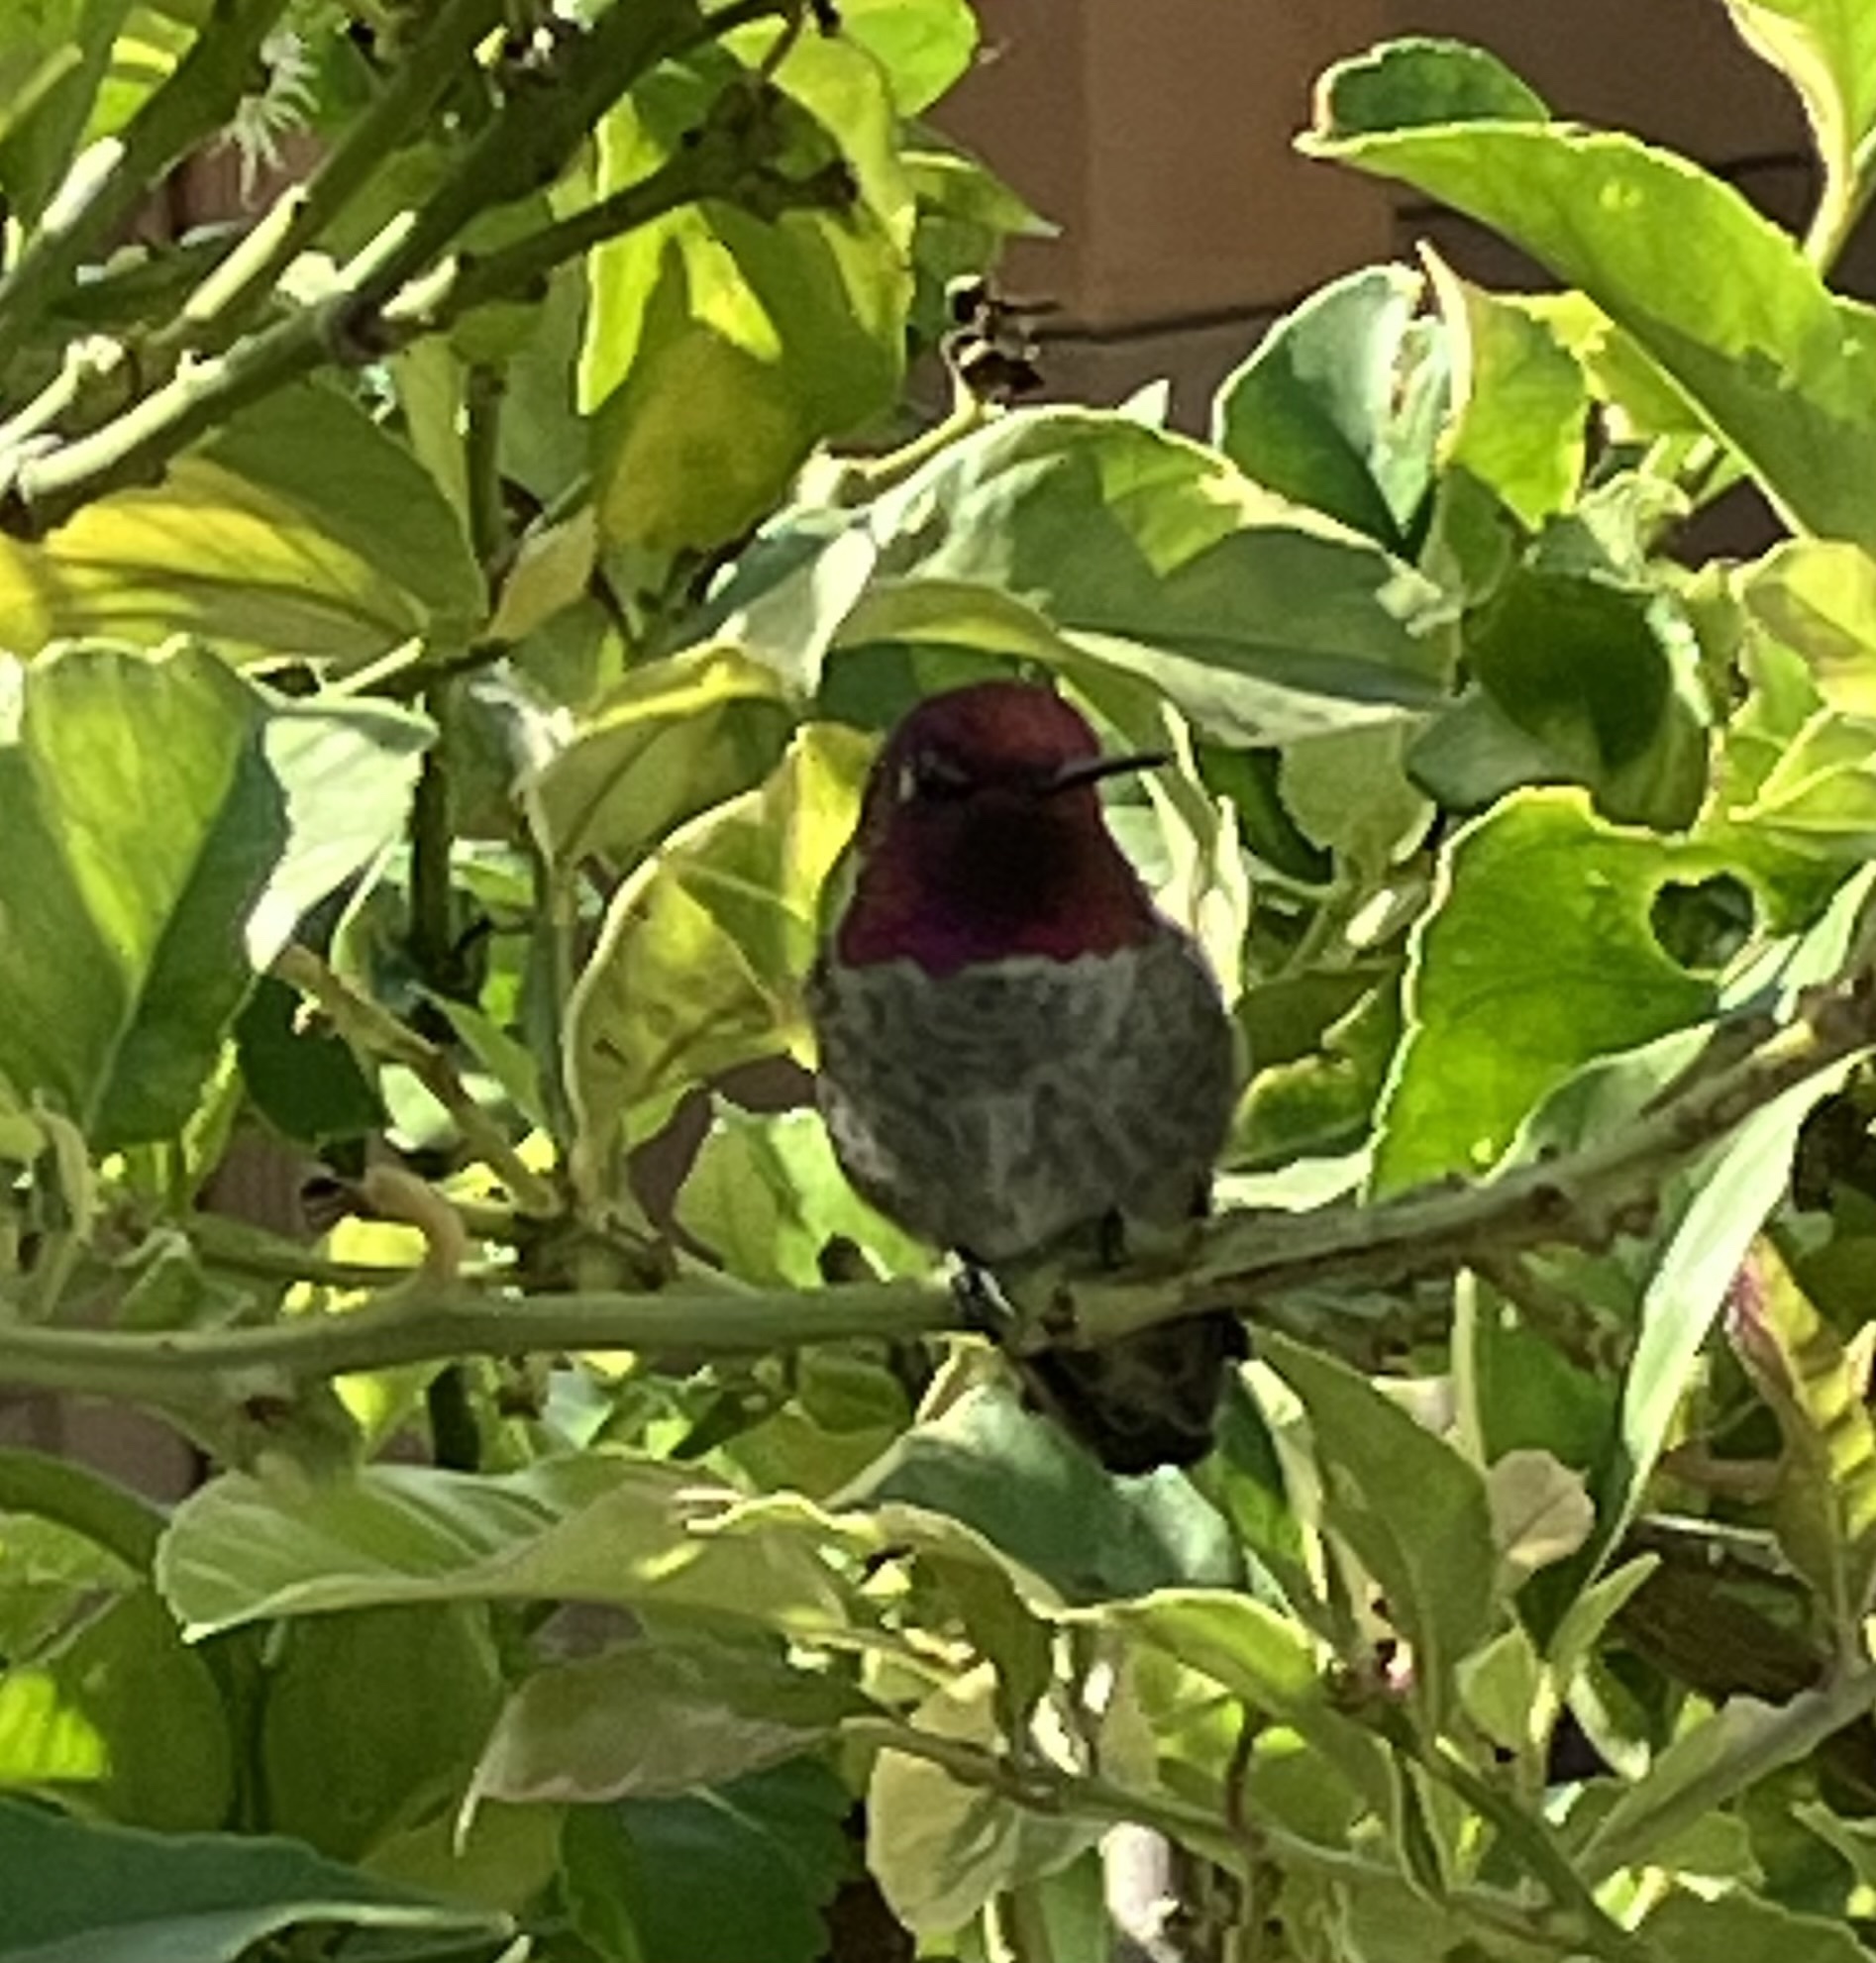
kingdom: Animalia
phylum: Chordata
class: Aves
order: Apodiformes
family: Trochilidae
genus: Calypte
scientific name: Calypte anna
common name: Anna's hummingbird
